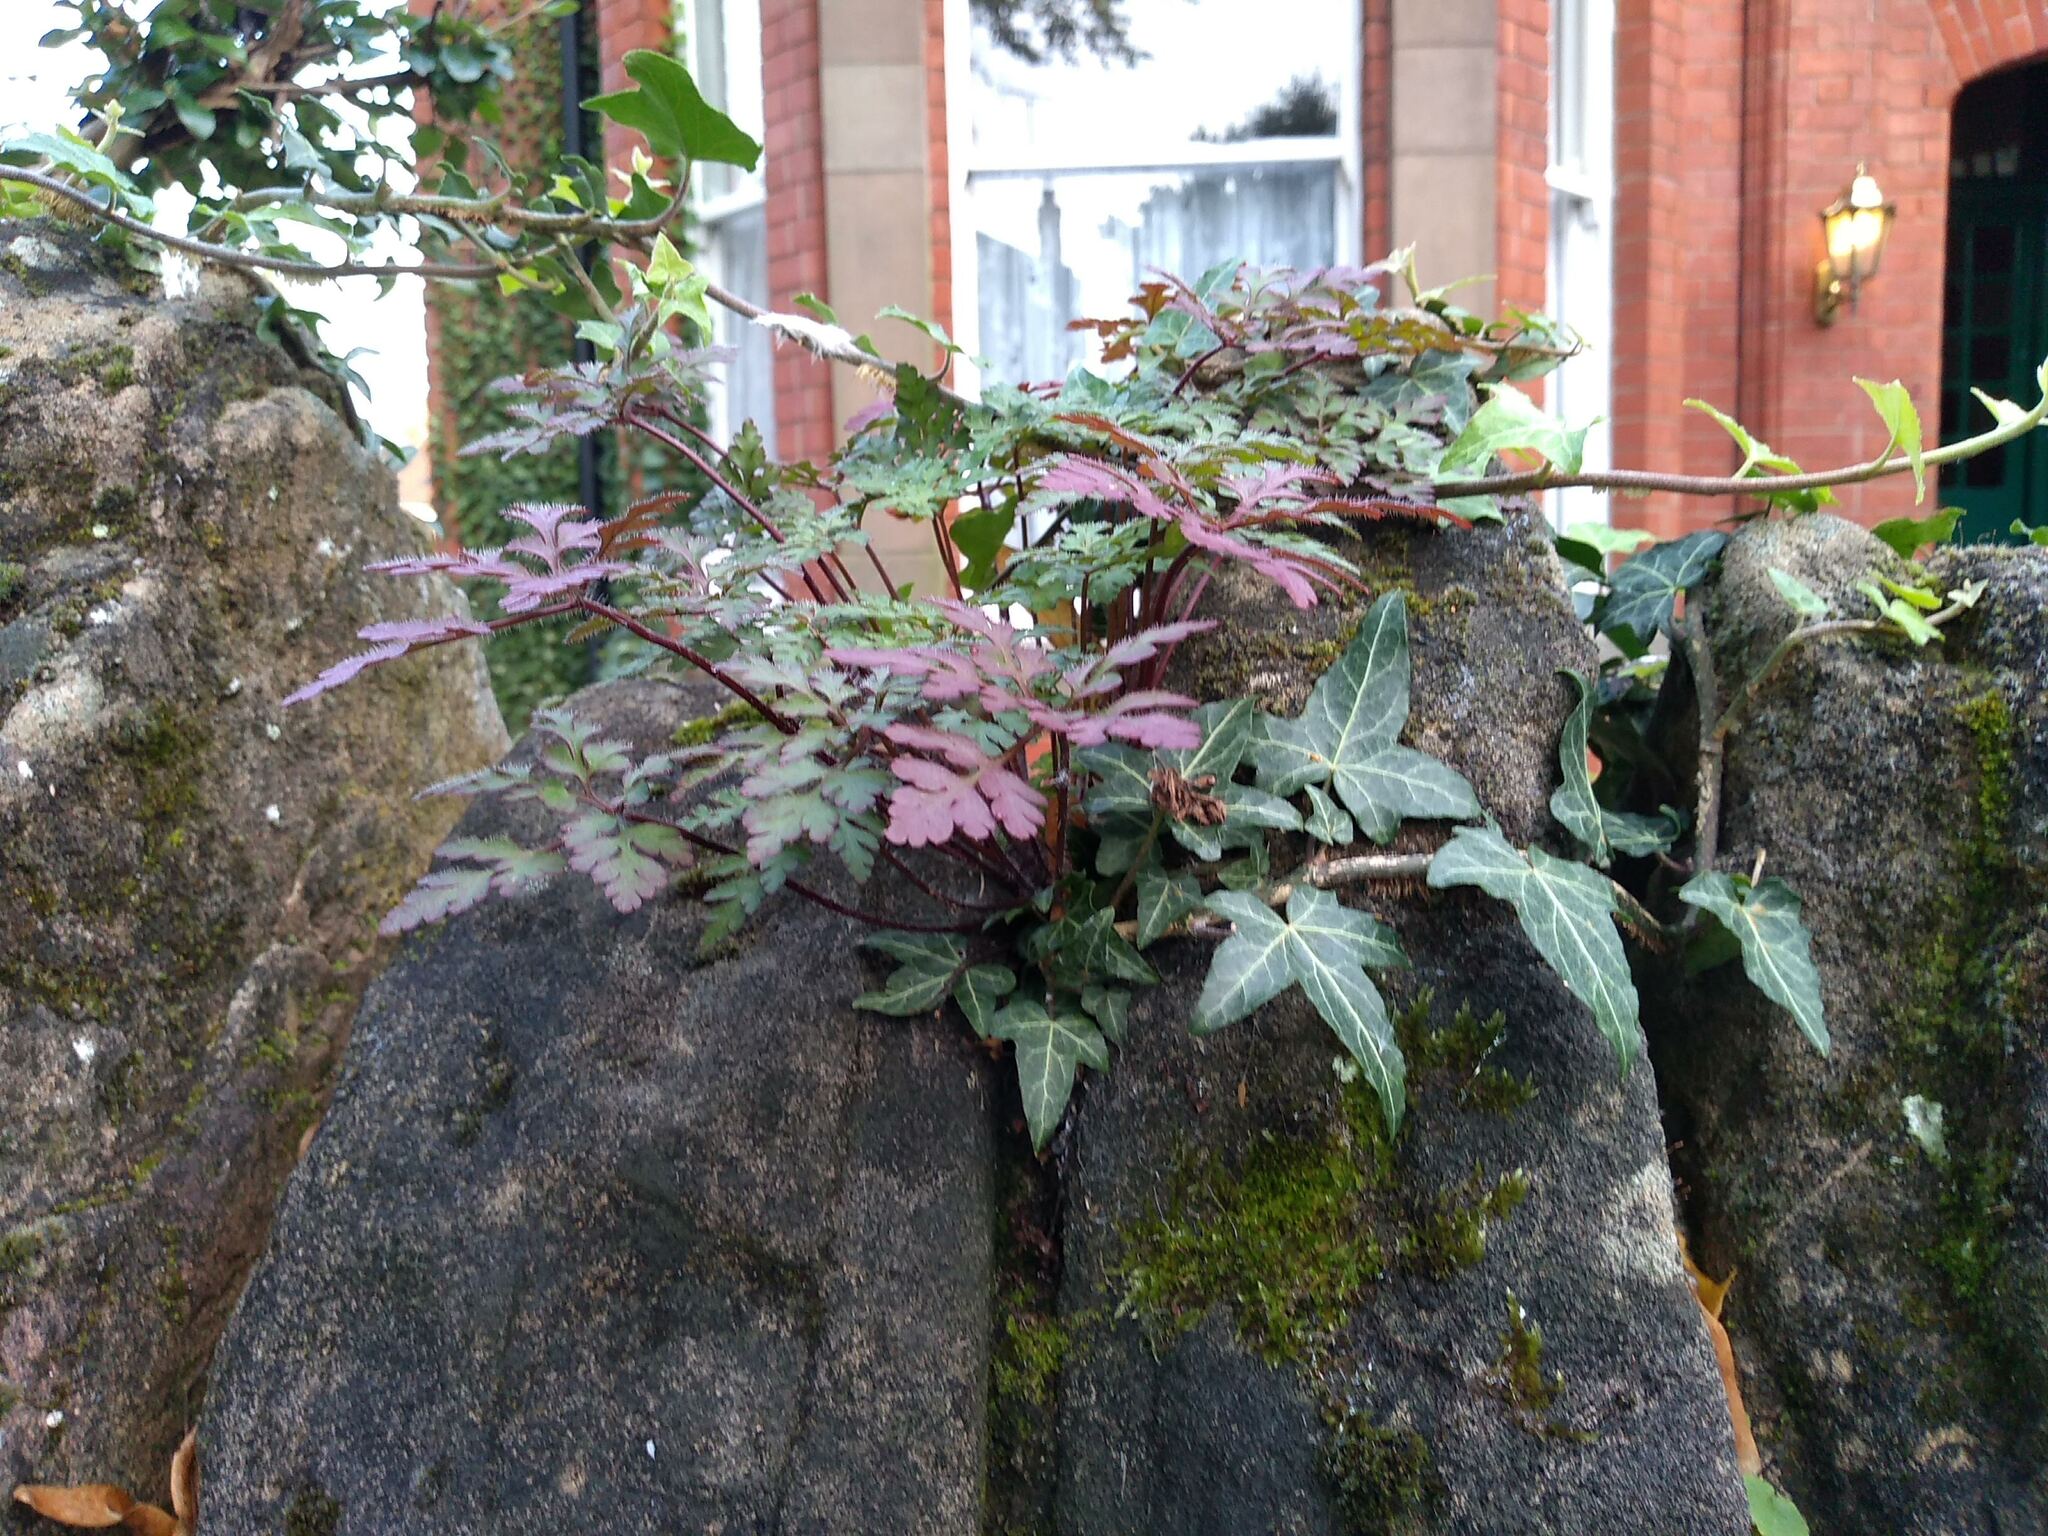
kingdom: Plantae
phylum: Tracheophyta
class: Magnoliopsida
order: Geraniales
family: Geraniaceae
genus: Geranium
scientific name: Geranium robertianum
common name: Herb-robert
